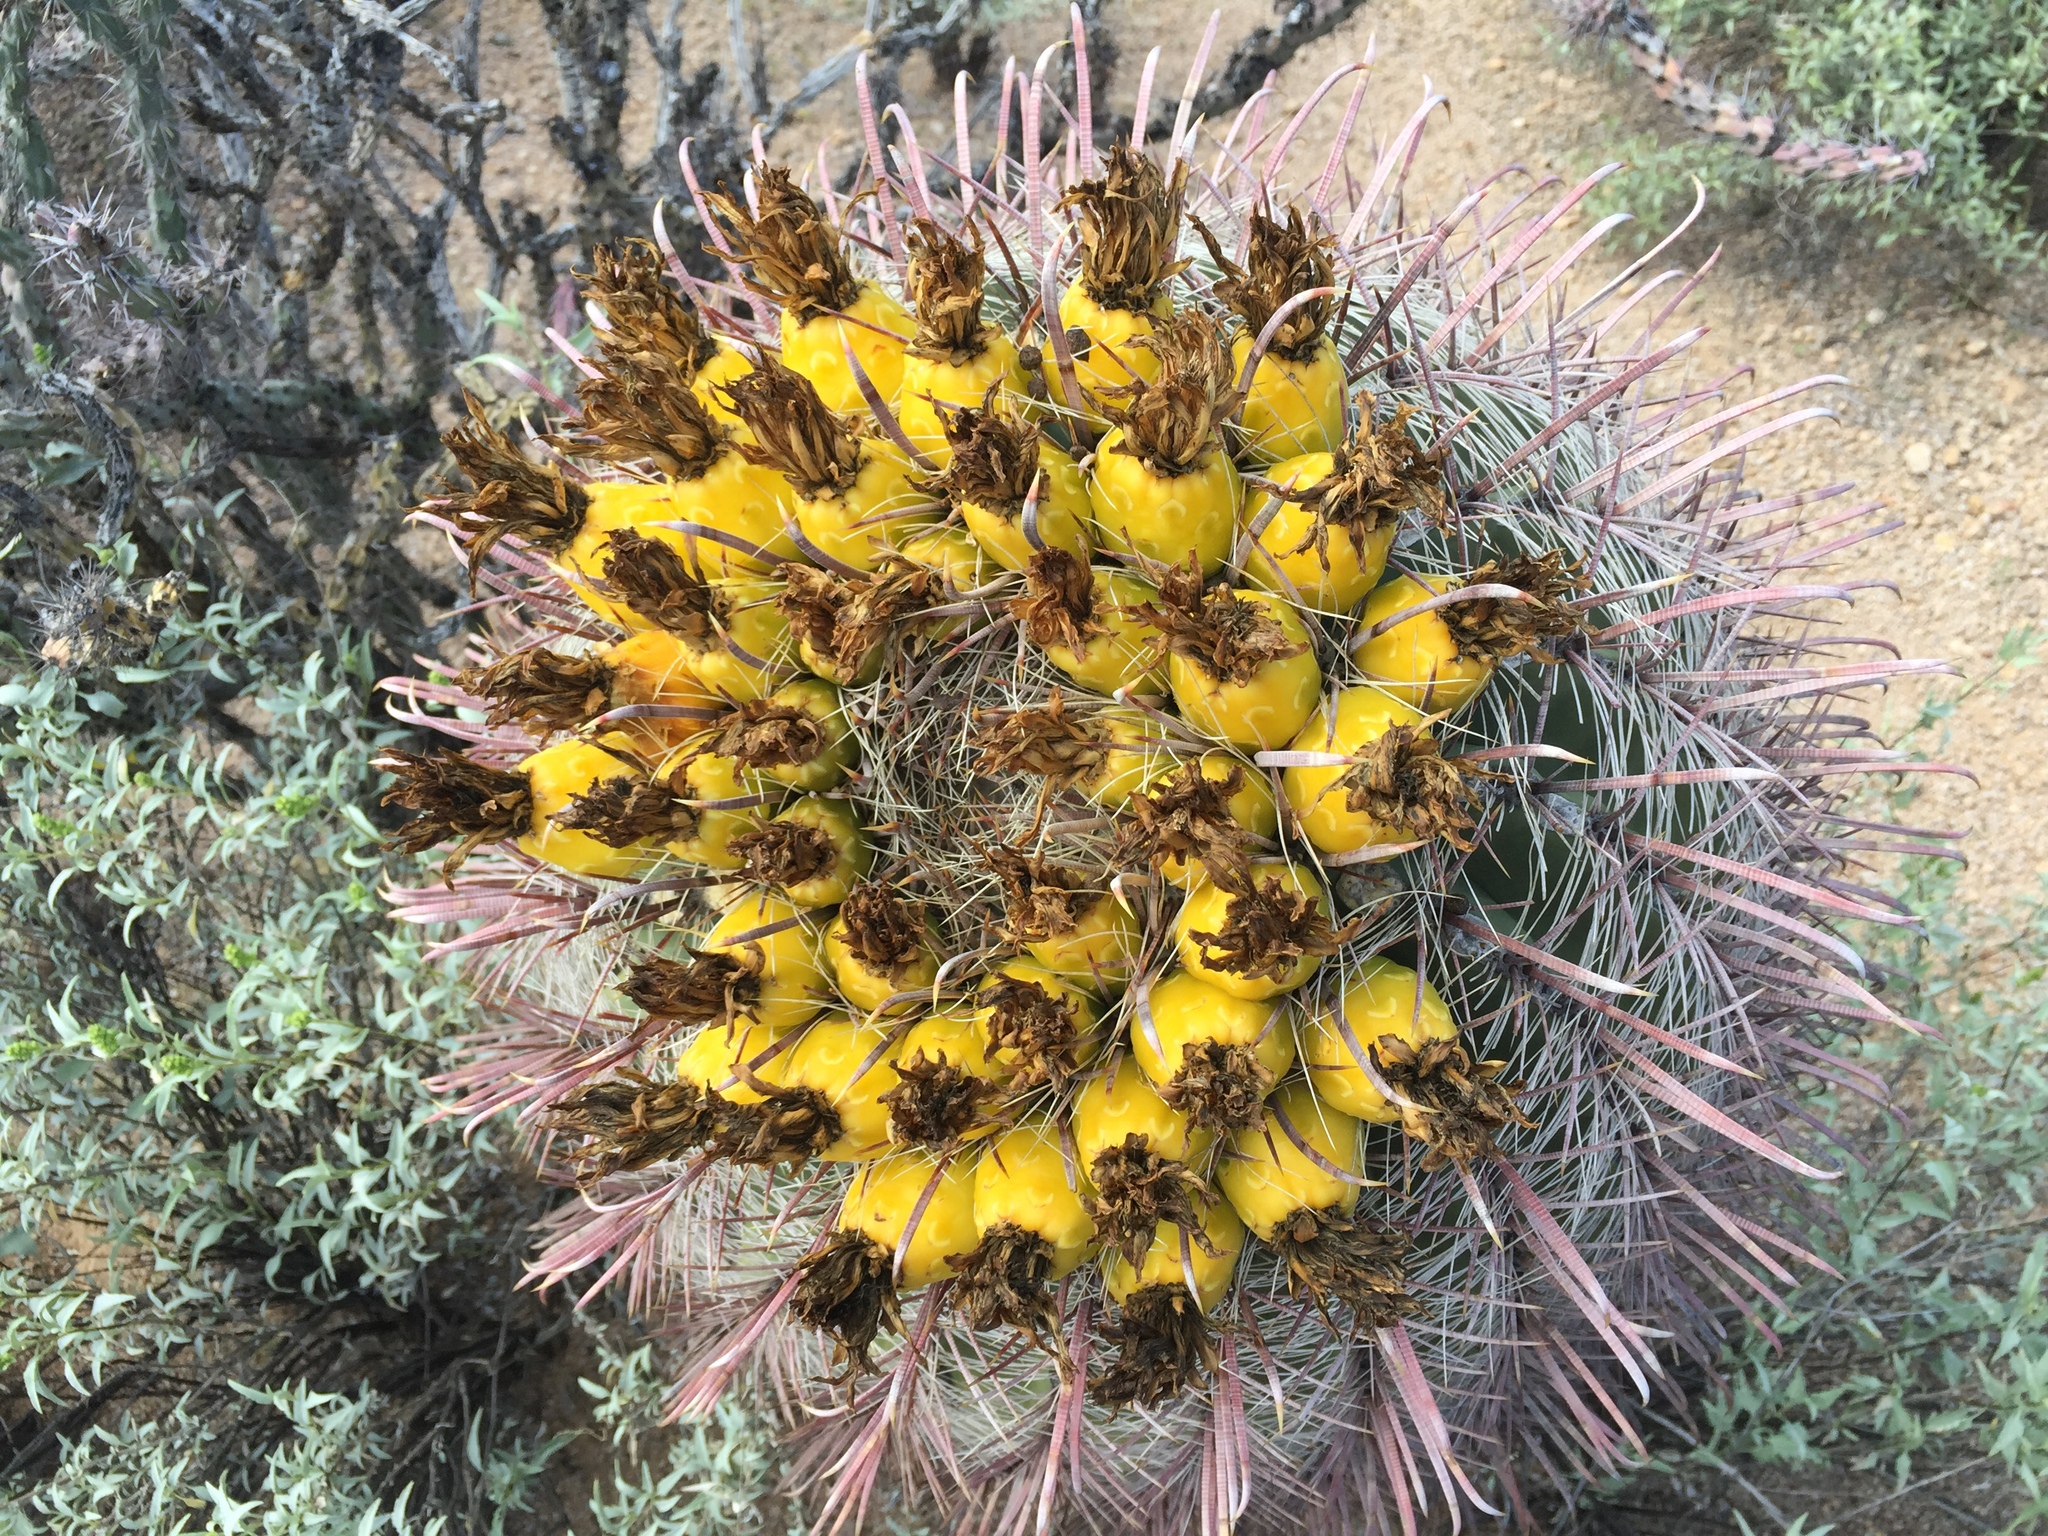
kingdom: Plantae
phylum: Tracheophyta
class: Magnoliopsida
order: Caryophyllales
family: Cactaceae
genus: Ferocactus
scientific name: Ferocactus wislizeni
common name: Candy barrel cactus
